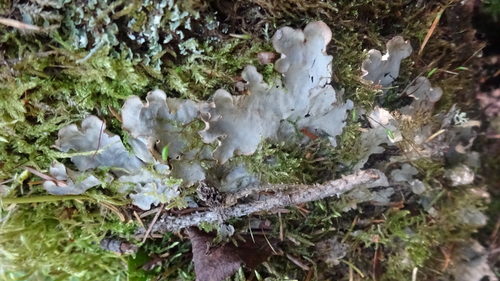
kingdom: Fungi
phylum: Ascomycota
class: Lecanoromycetes
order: Peltigerales
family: Peltigeraceae
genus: Peltigera
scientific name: Peltigera
